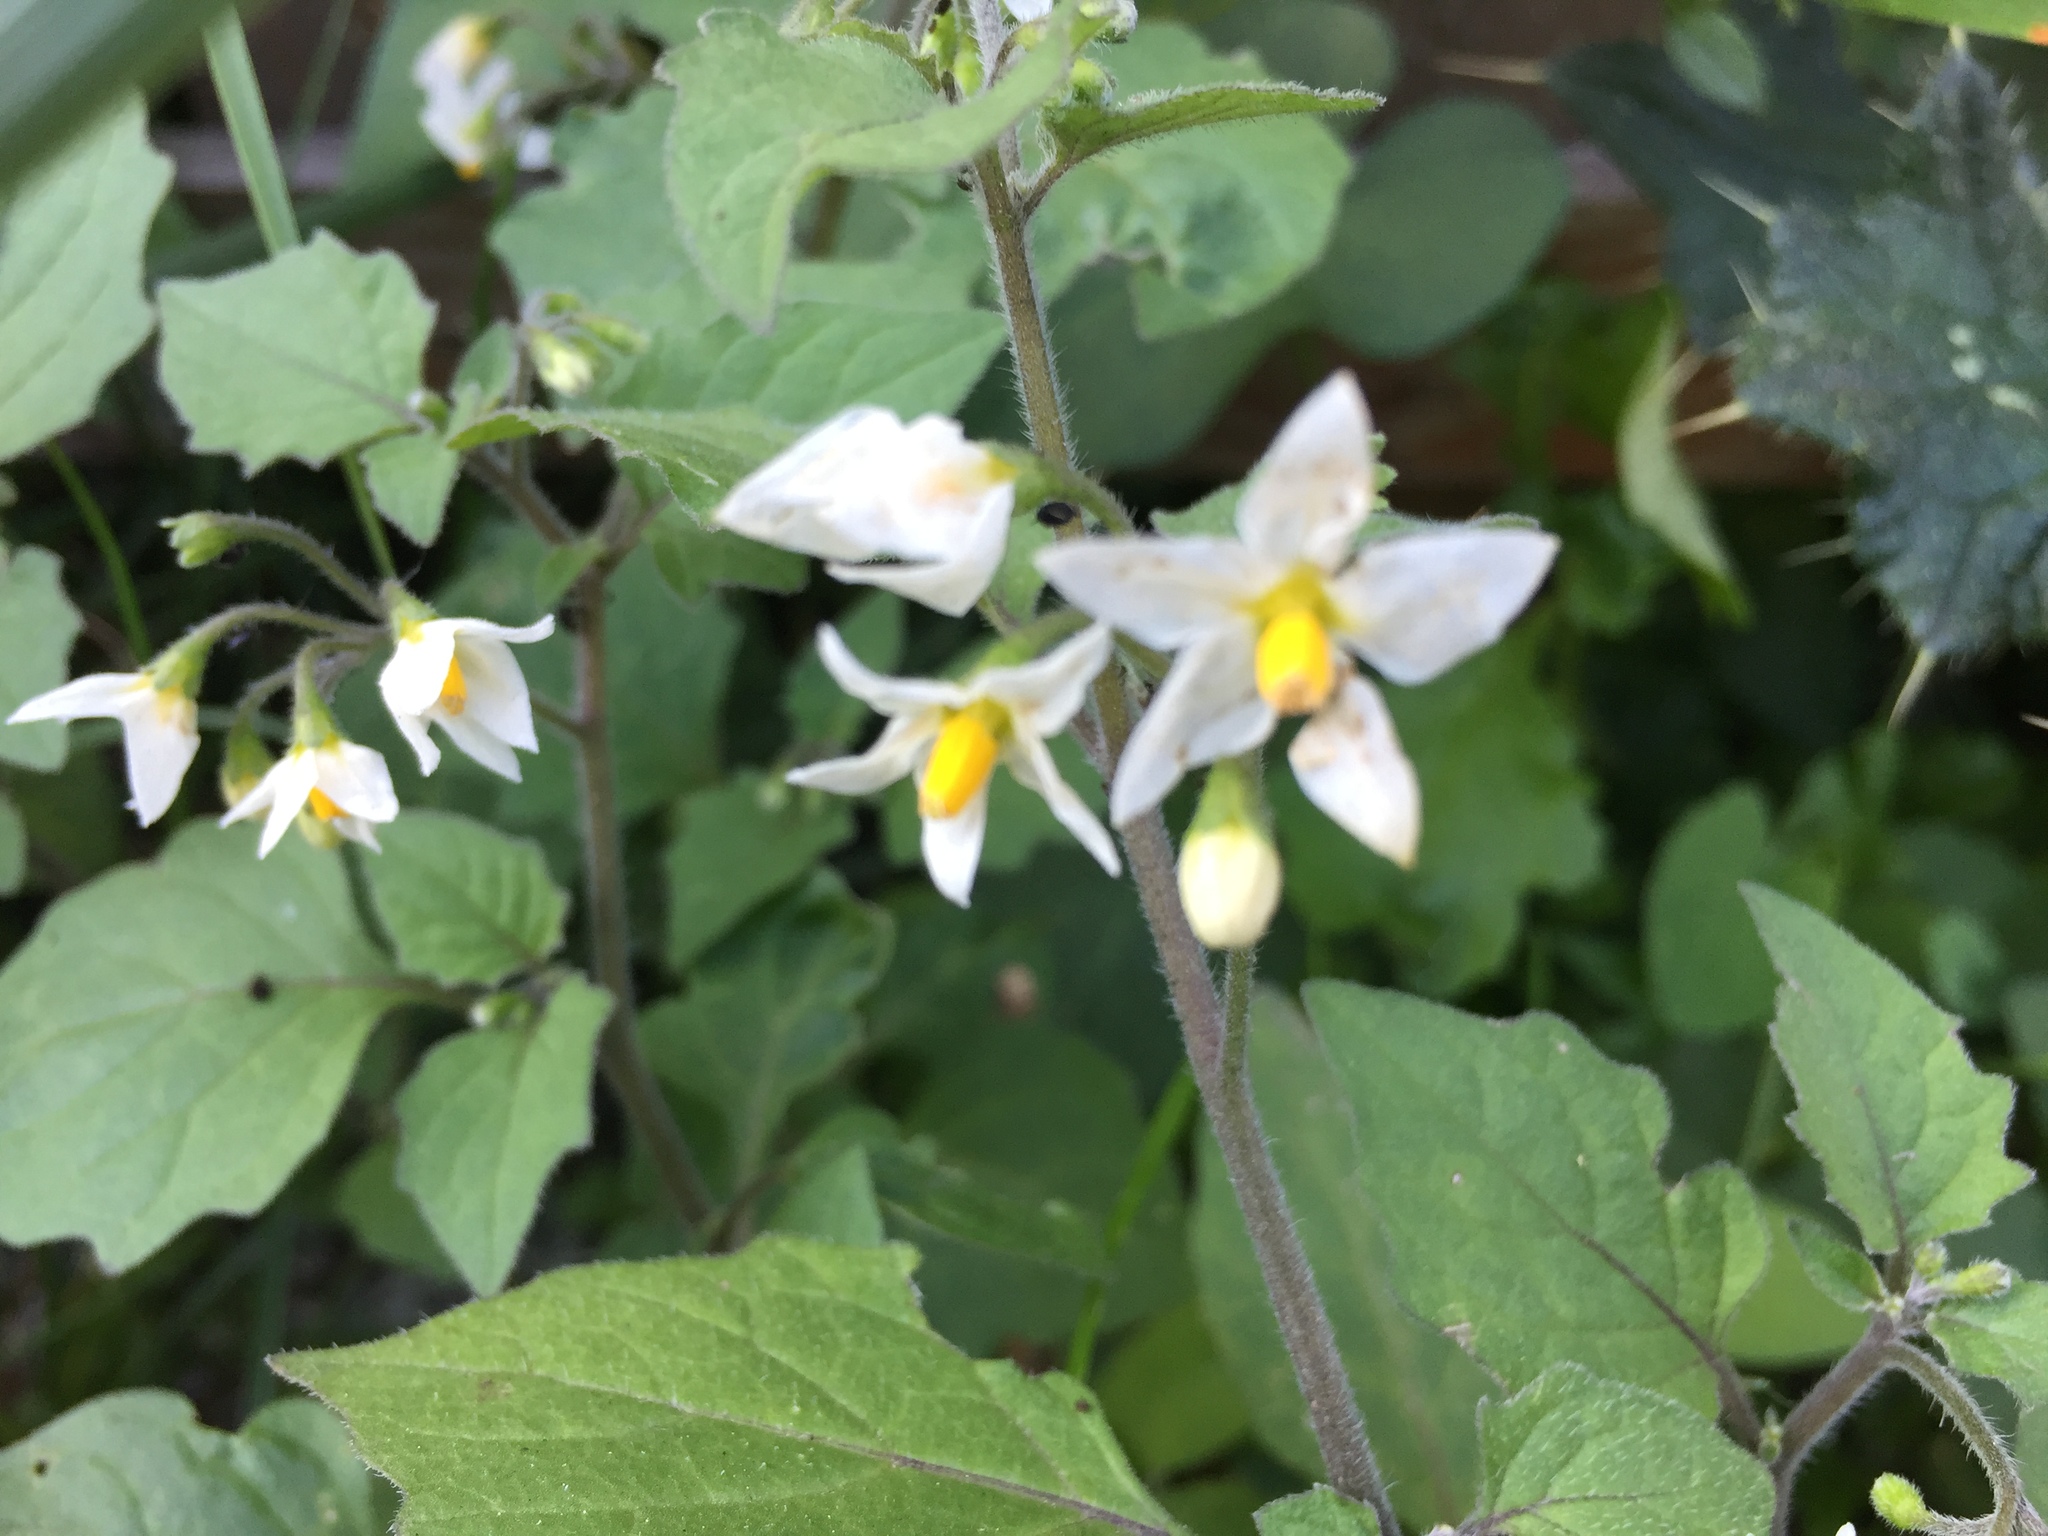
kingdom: Plantae
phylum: Tracheophyta
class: Magnoliopsida
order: Solanales
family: Solanaceae
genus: Solanum
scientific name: Solanum nigrum
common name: Black nightshade
